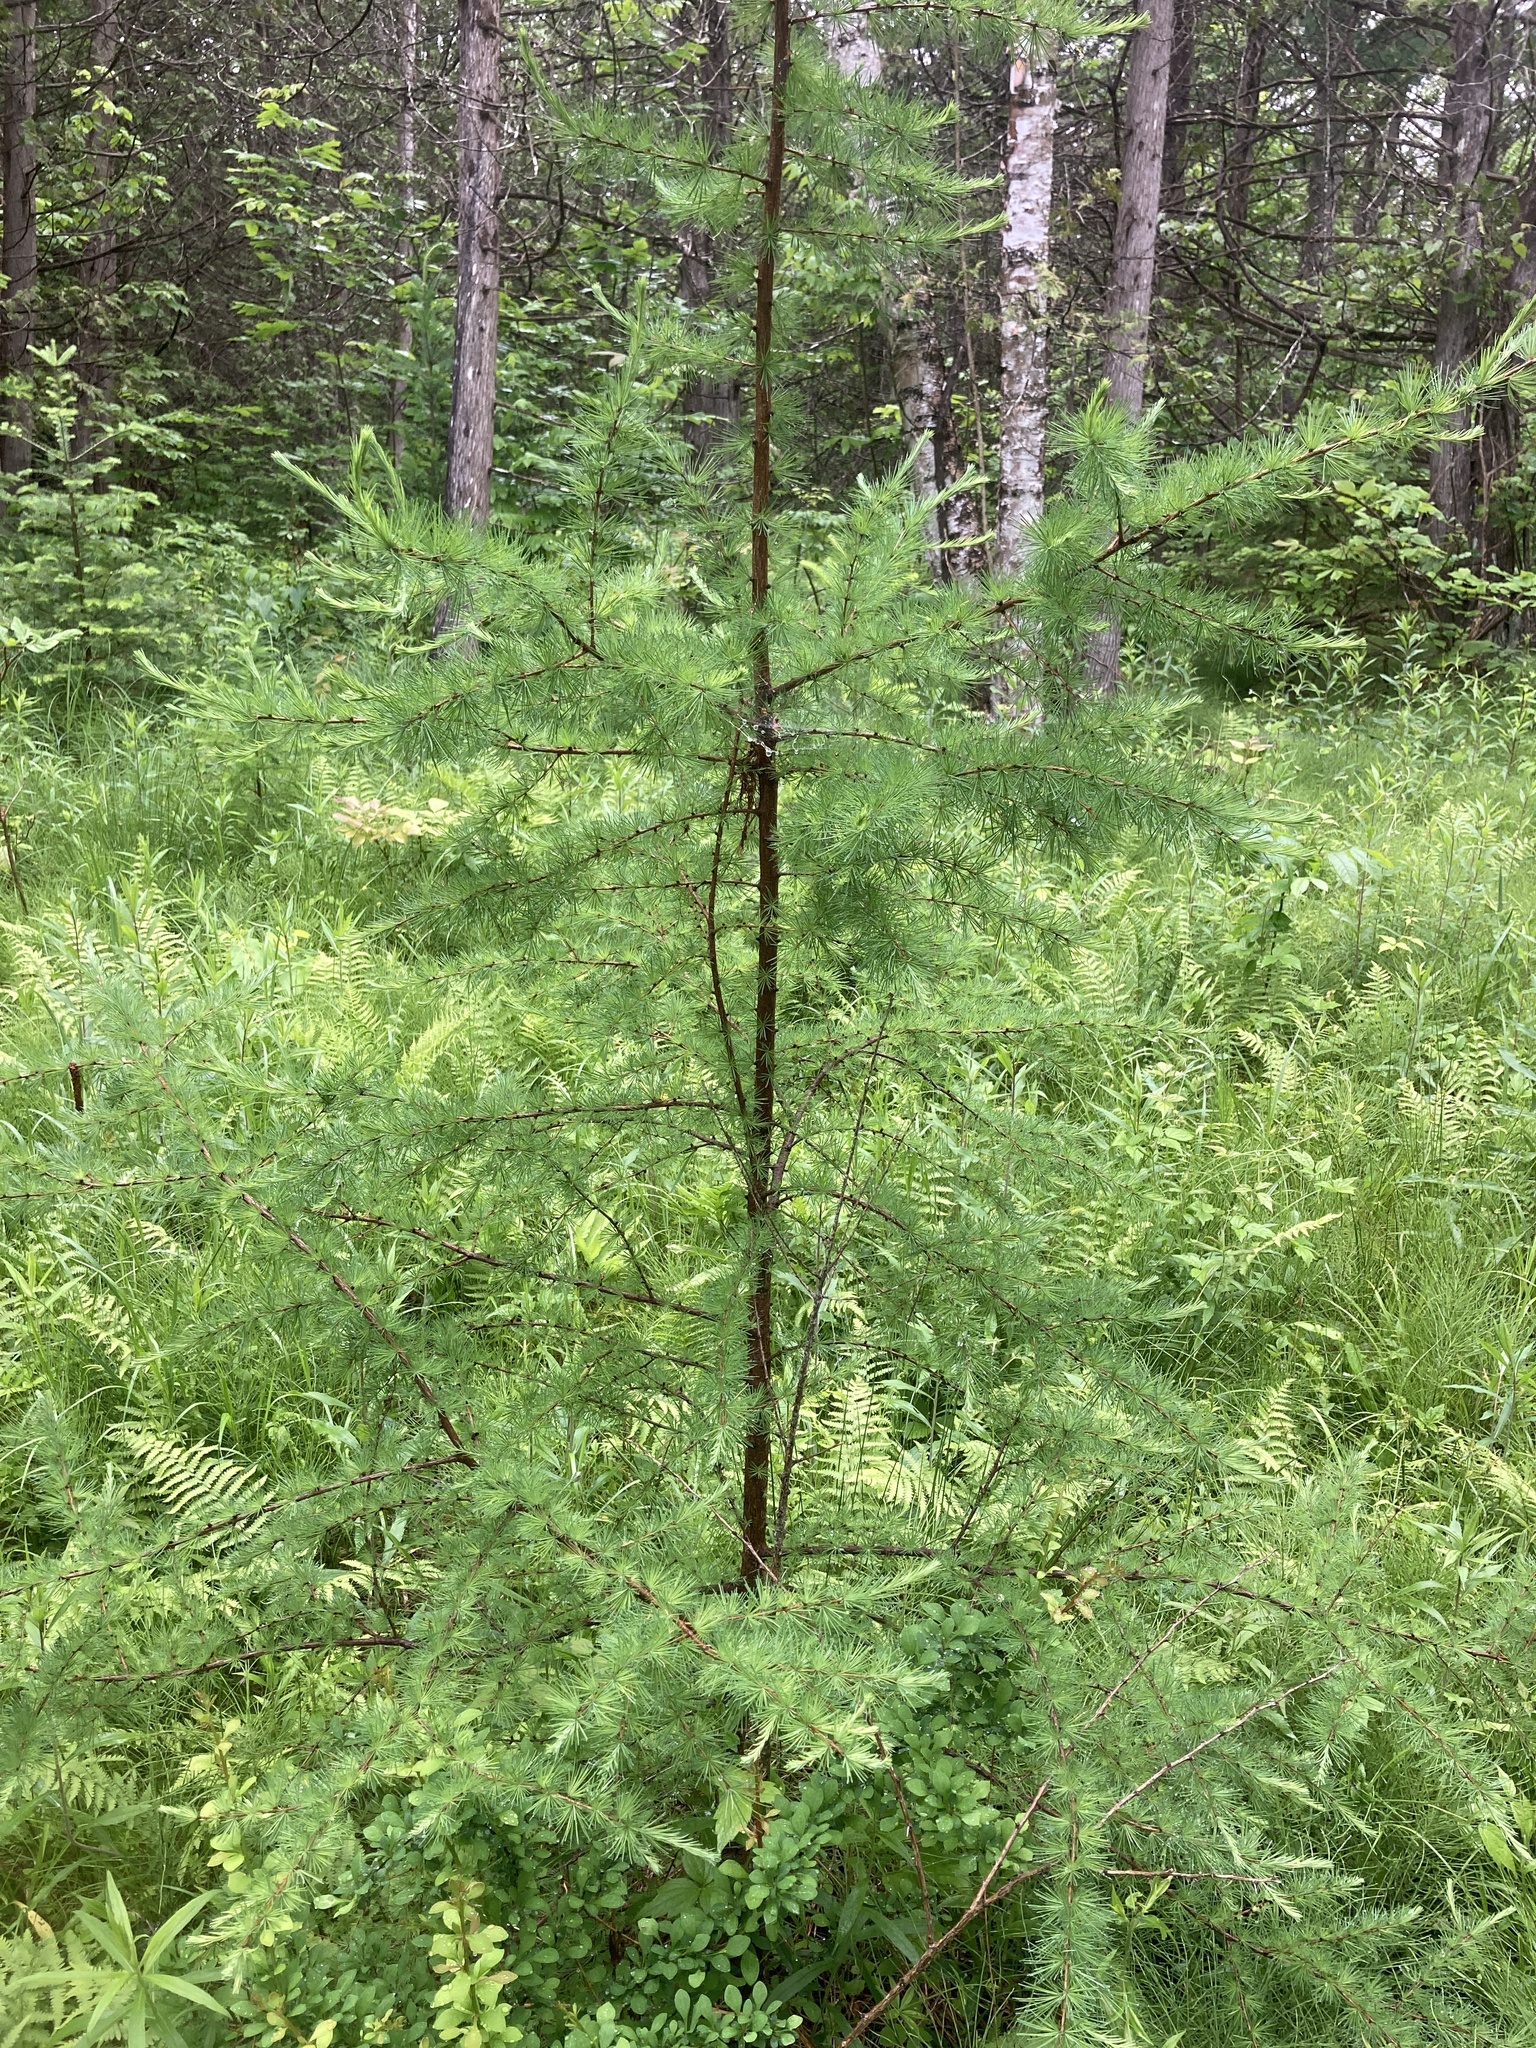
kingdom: Plantae
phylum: Tracheophyta
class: Pinopsida
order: Pinales
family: Pinaceae
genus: Larix
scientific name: Larix laricina
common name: American larch
